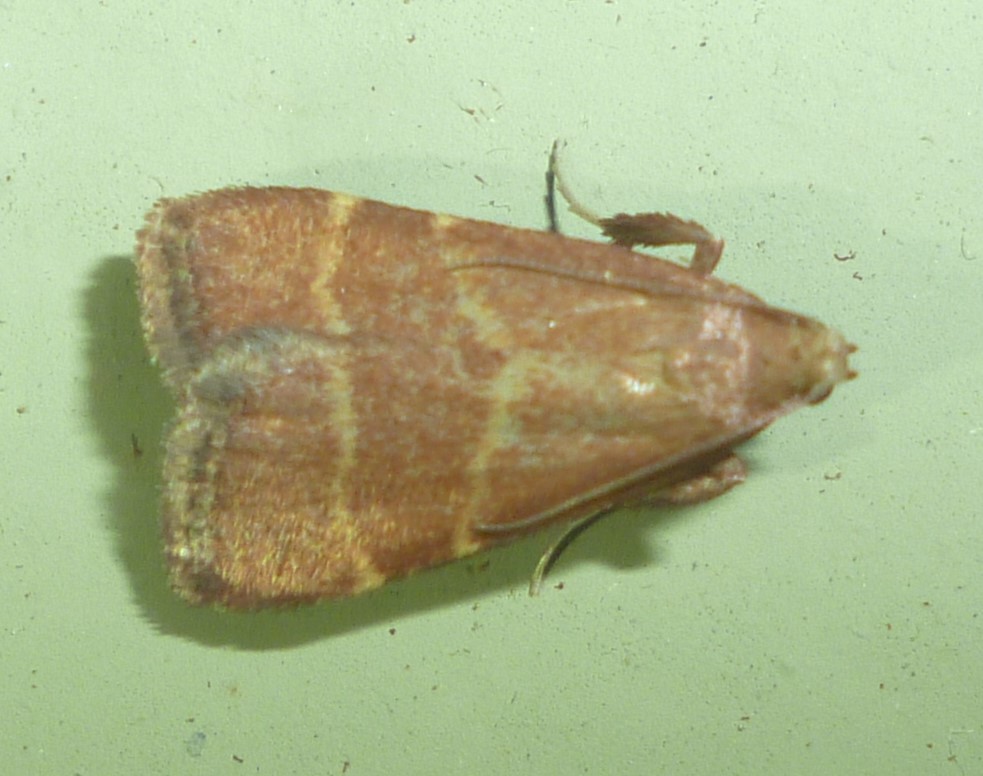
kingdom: Animalia
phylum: Arthropoda
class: Insecta
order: Lepidoptera
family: Pyralidae
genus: Arta
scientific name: Arta statalis
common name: Posturing arta moth
